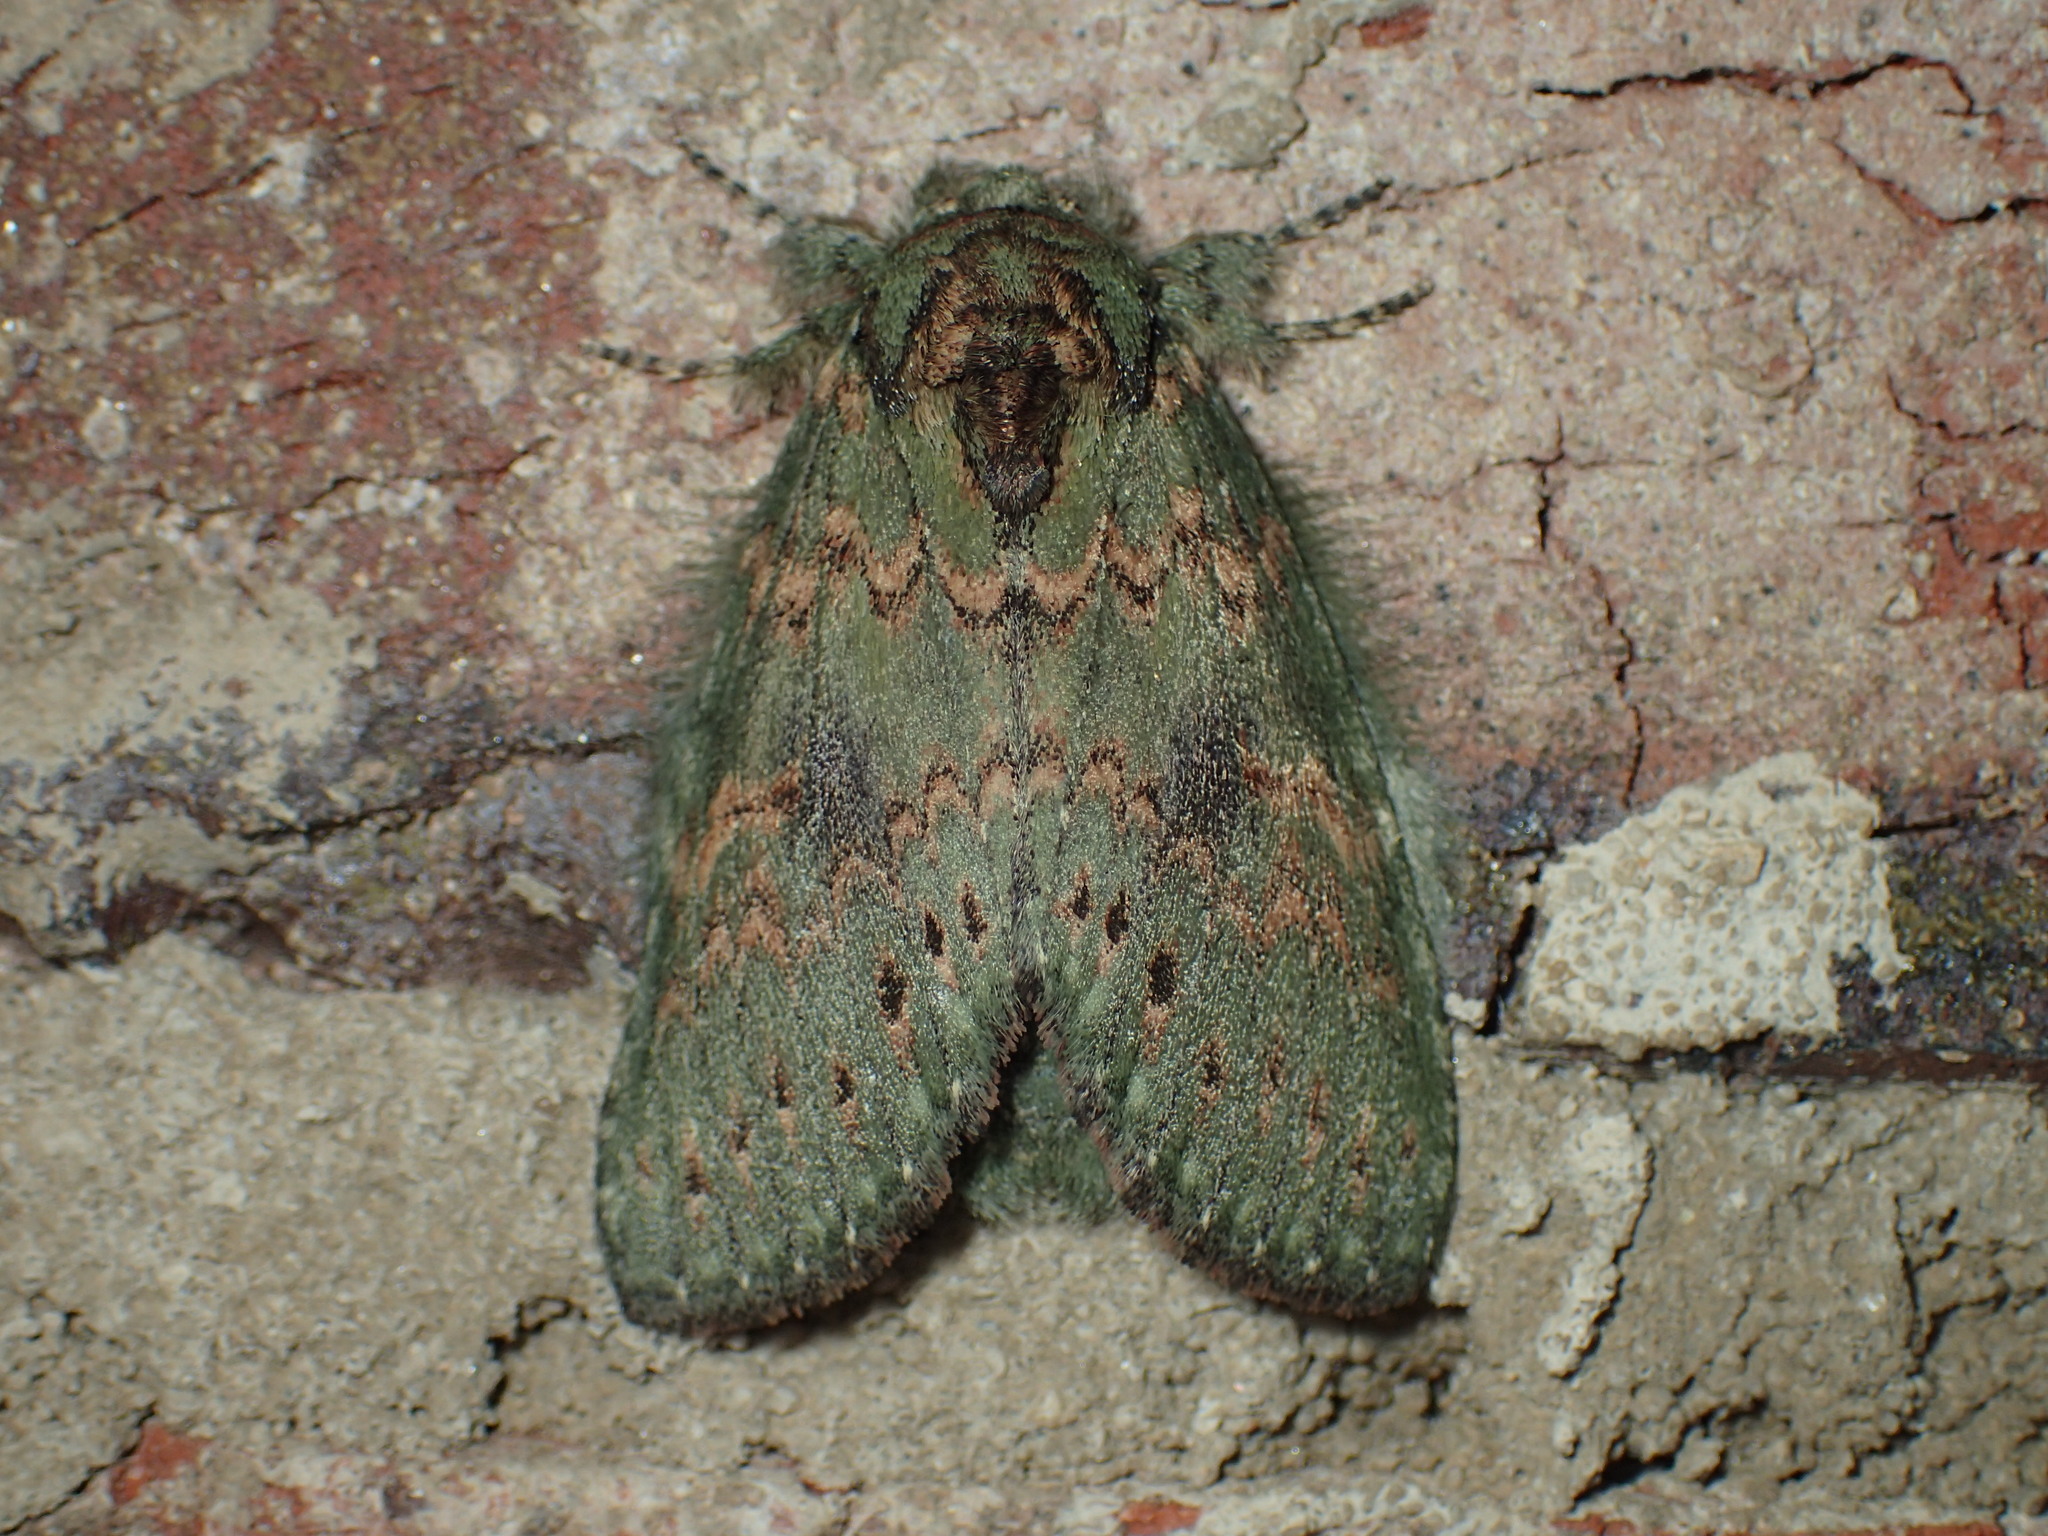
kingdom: Animalia
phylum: Arthropoda
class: Insecta
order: Lepidoptera
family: Notodontidae
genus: Disphragis
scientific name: Disphragis Cecrita biundata
